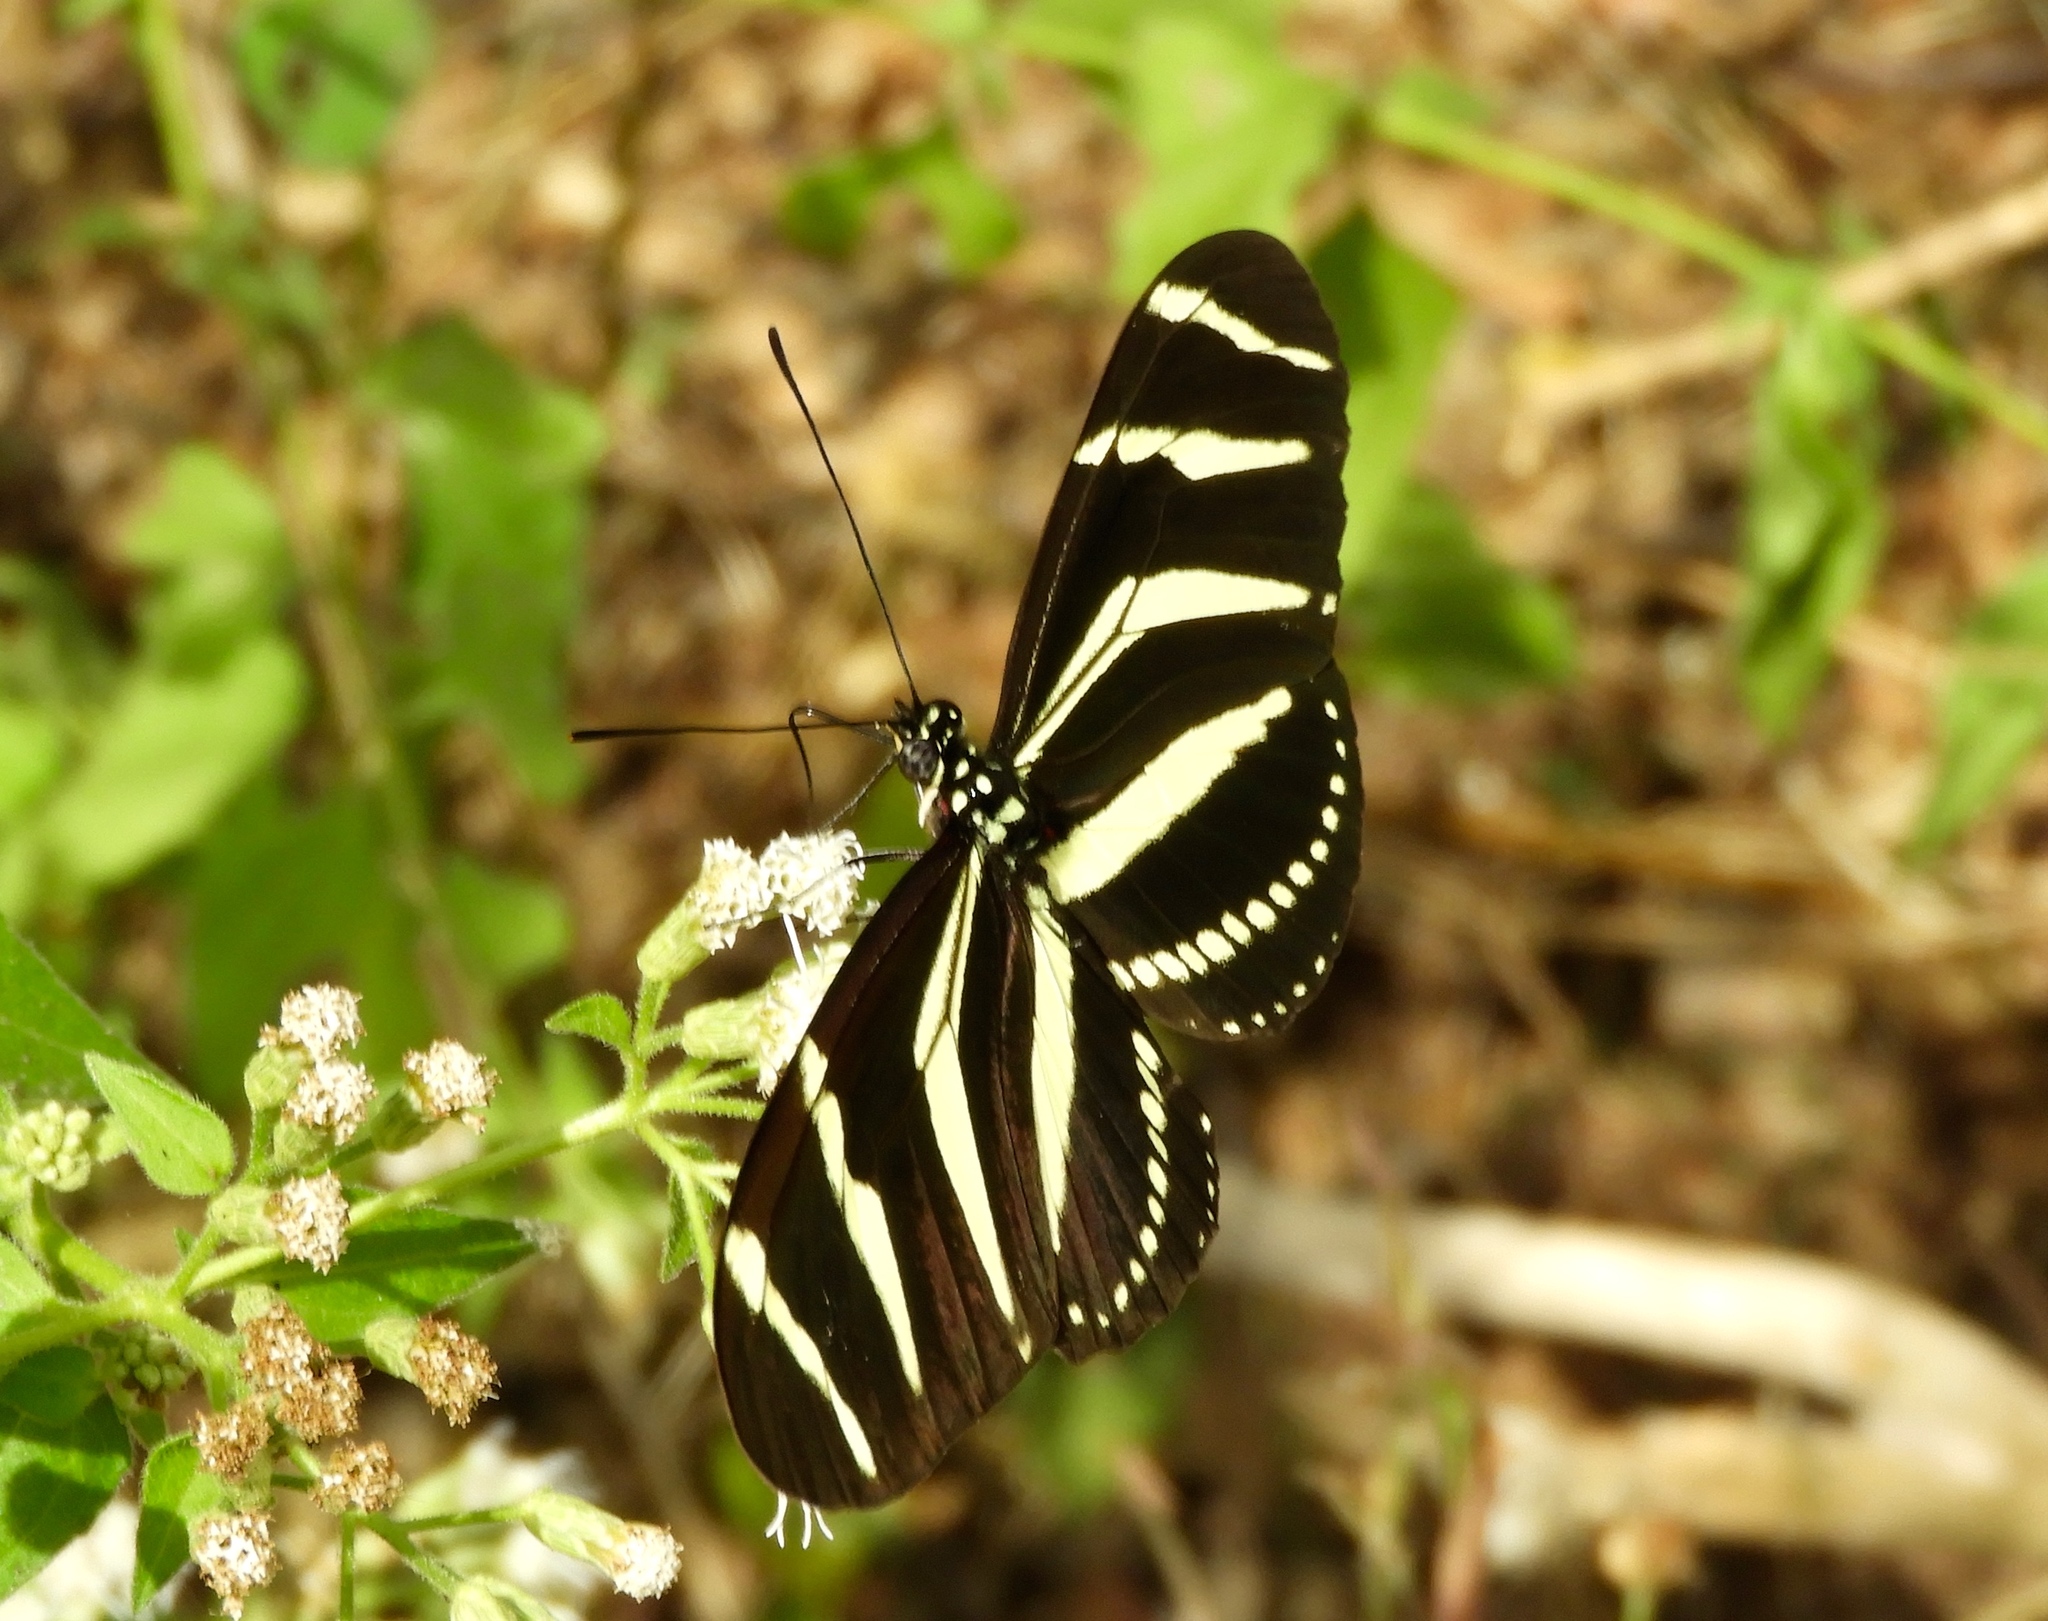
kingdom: Animalia
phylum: Arthropoda
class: Insecta
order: Lepidoptera
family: Nymphalidae
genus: Heliconius
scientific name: Heliconius charithonia
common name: Zebra long wing
